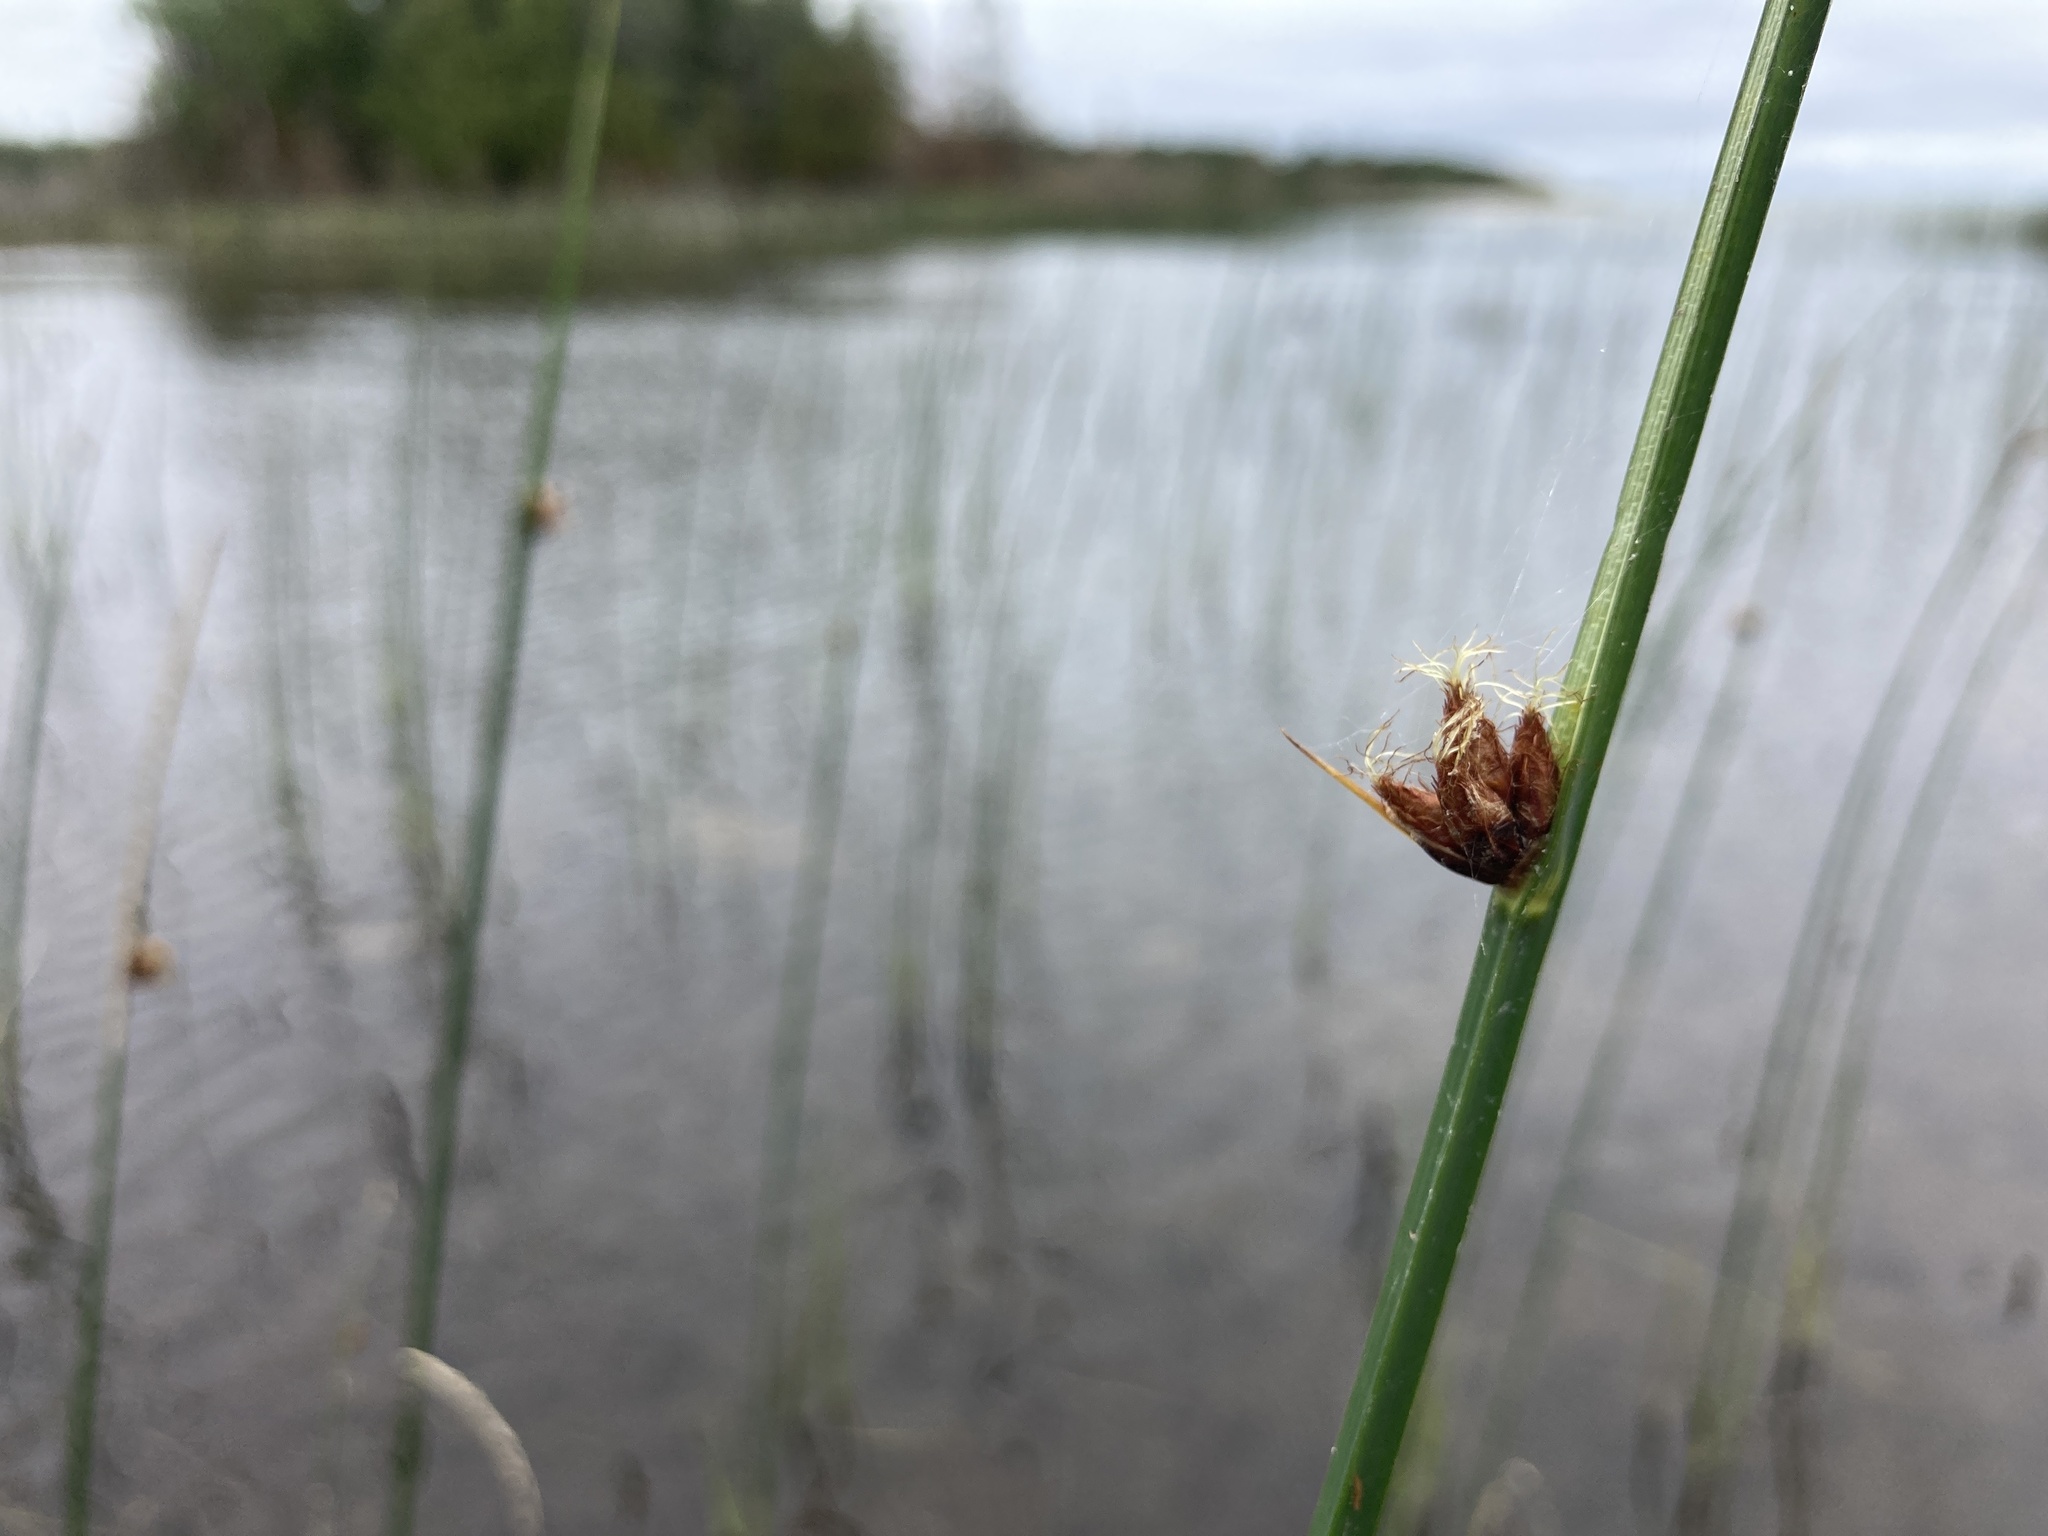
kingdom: Plantae
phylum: Tracheophyta
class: Liliopsida
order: Poales
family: Cyperaceae
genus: Schoenoplectus
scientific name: Schoenoplectus pungens
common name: Sharp club-rush
